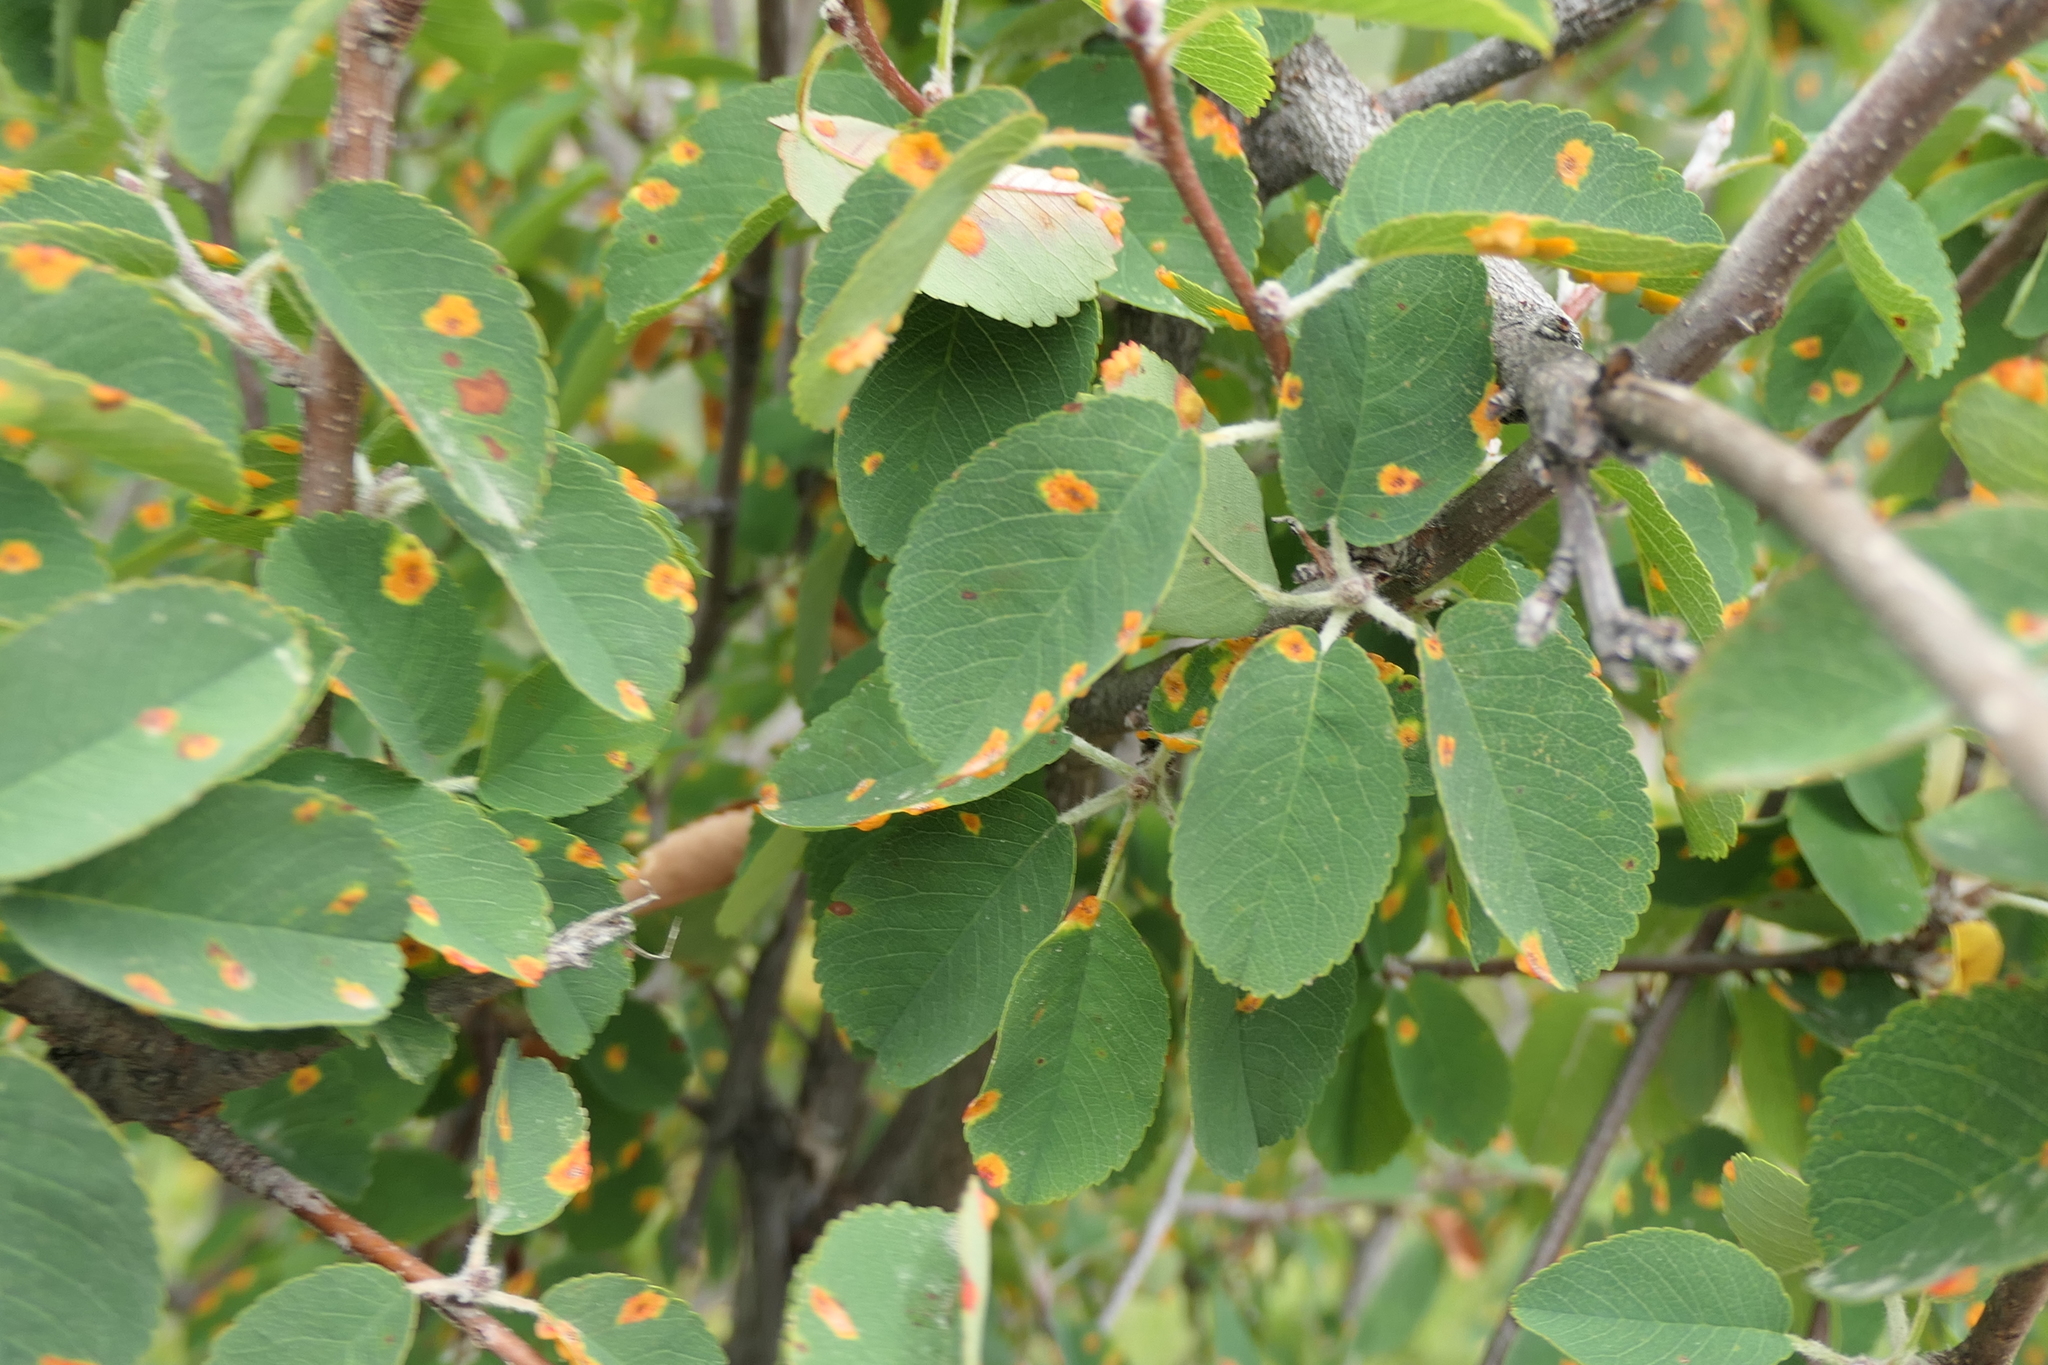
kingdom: Plantae
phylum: Tracheophyta
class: Magnoliopsida
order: Rosales
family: Rosaceae
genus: Amelanchier
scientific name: Amelanchier ovalis
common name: Serviceberry
